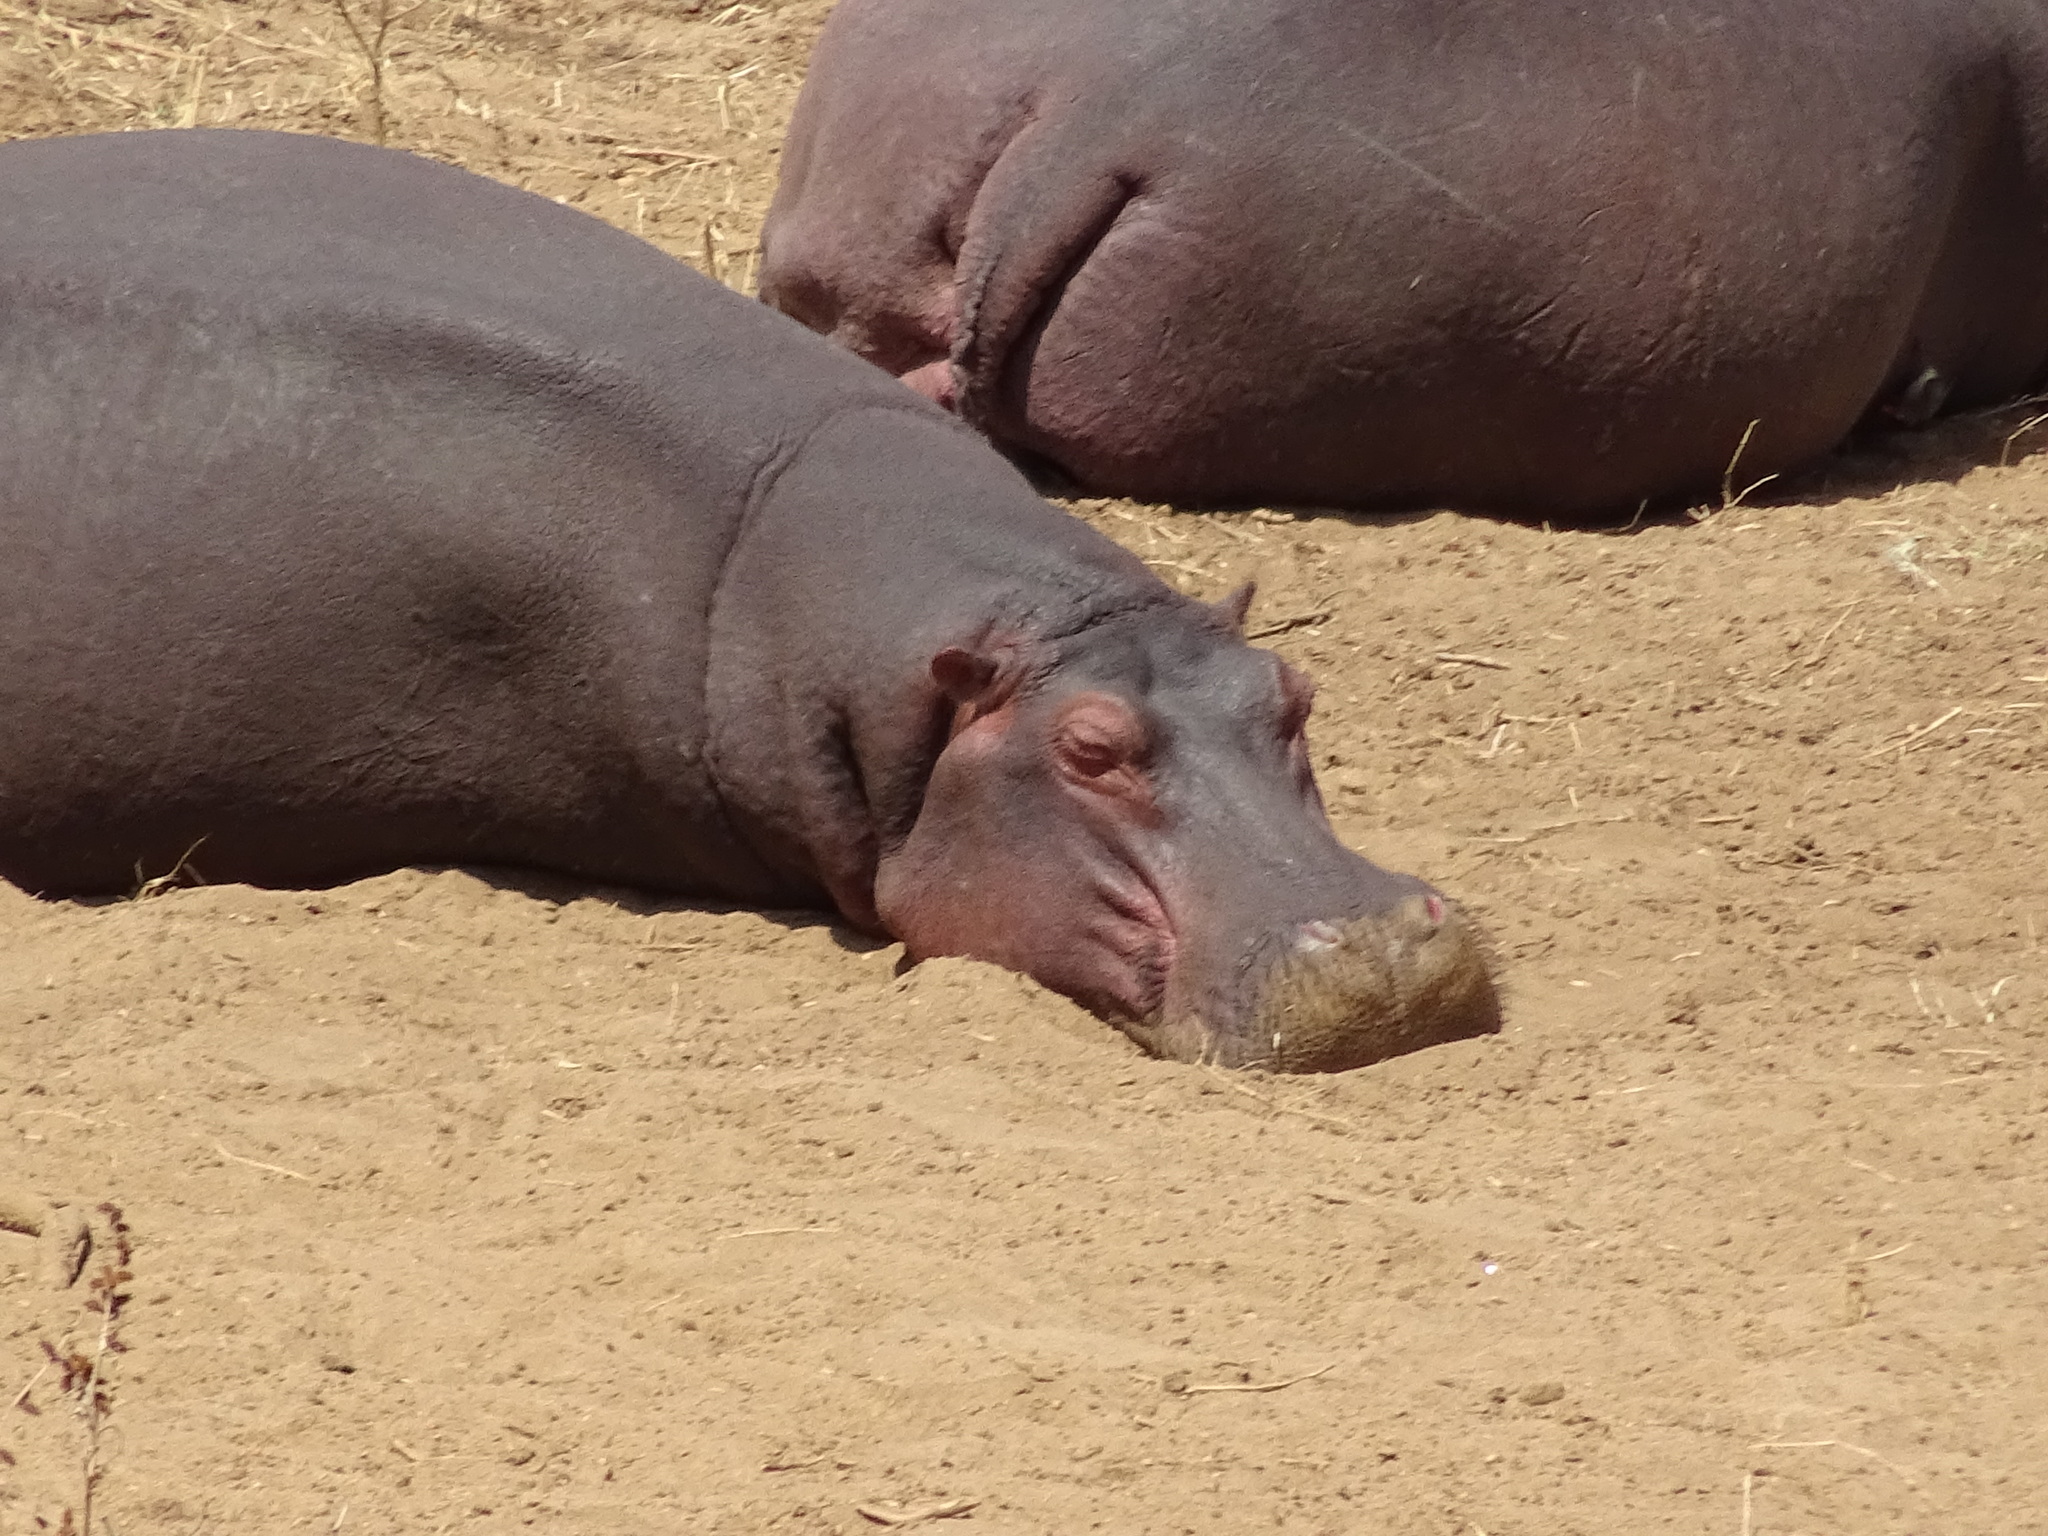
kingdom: Animalia
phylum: Chordata
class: Mammalia
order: Artiodactyla
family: Hippopotamidae
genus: Hippopotamus
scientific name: Hippopotamus amphibius
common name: Common hippopotamus
